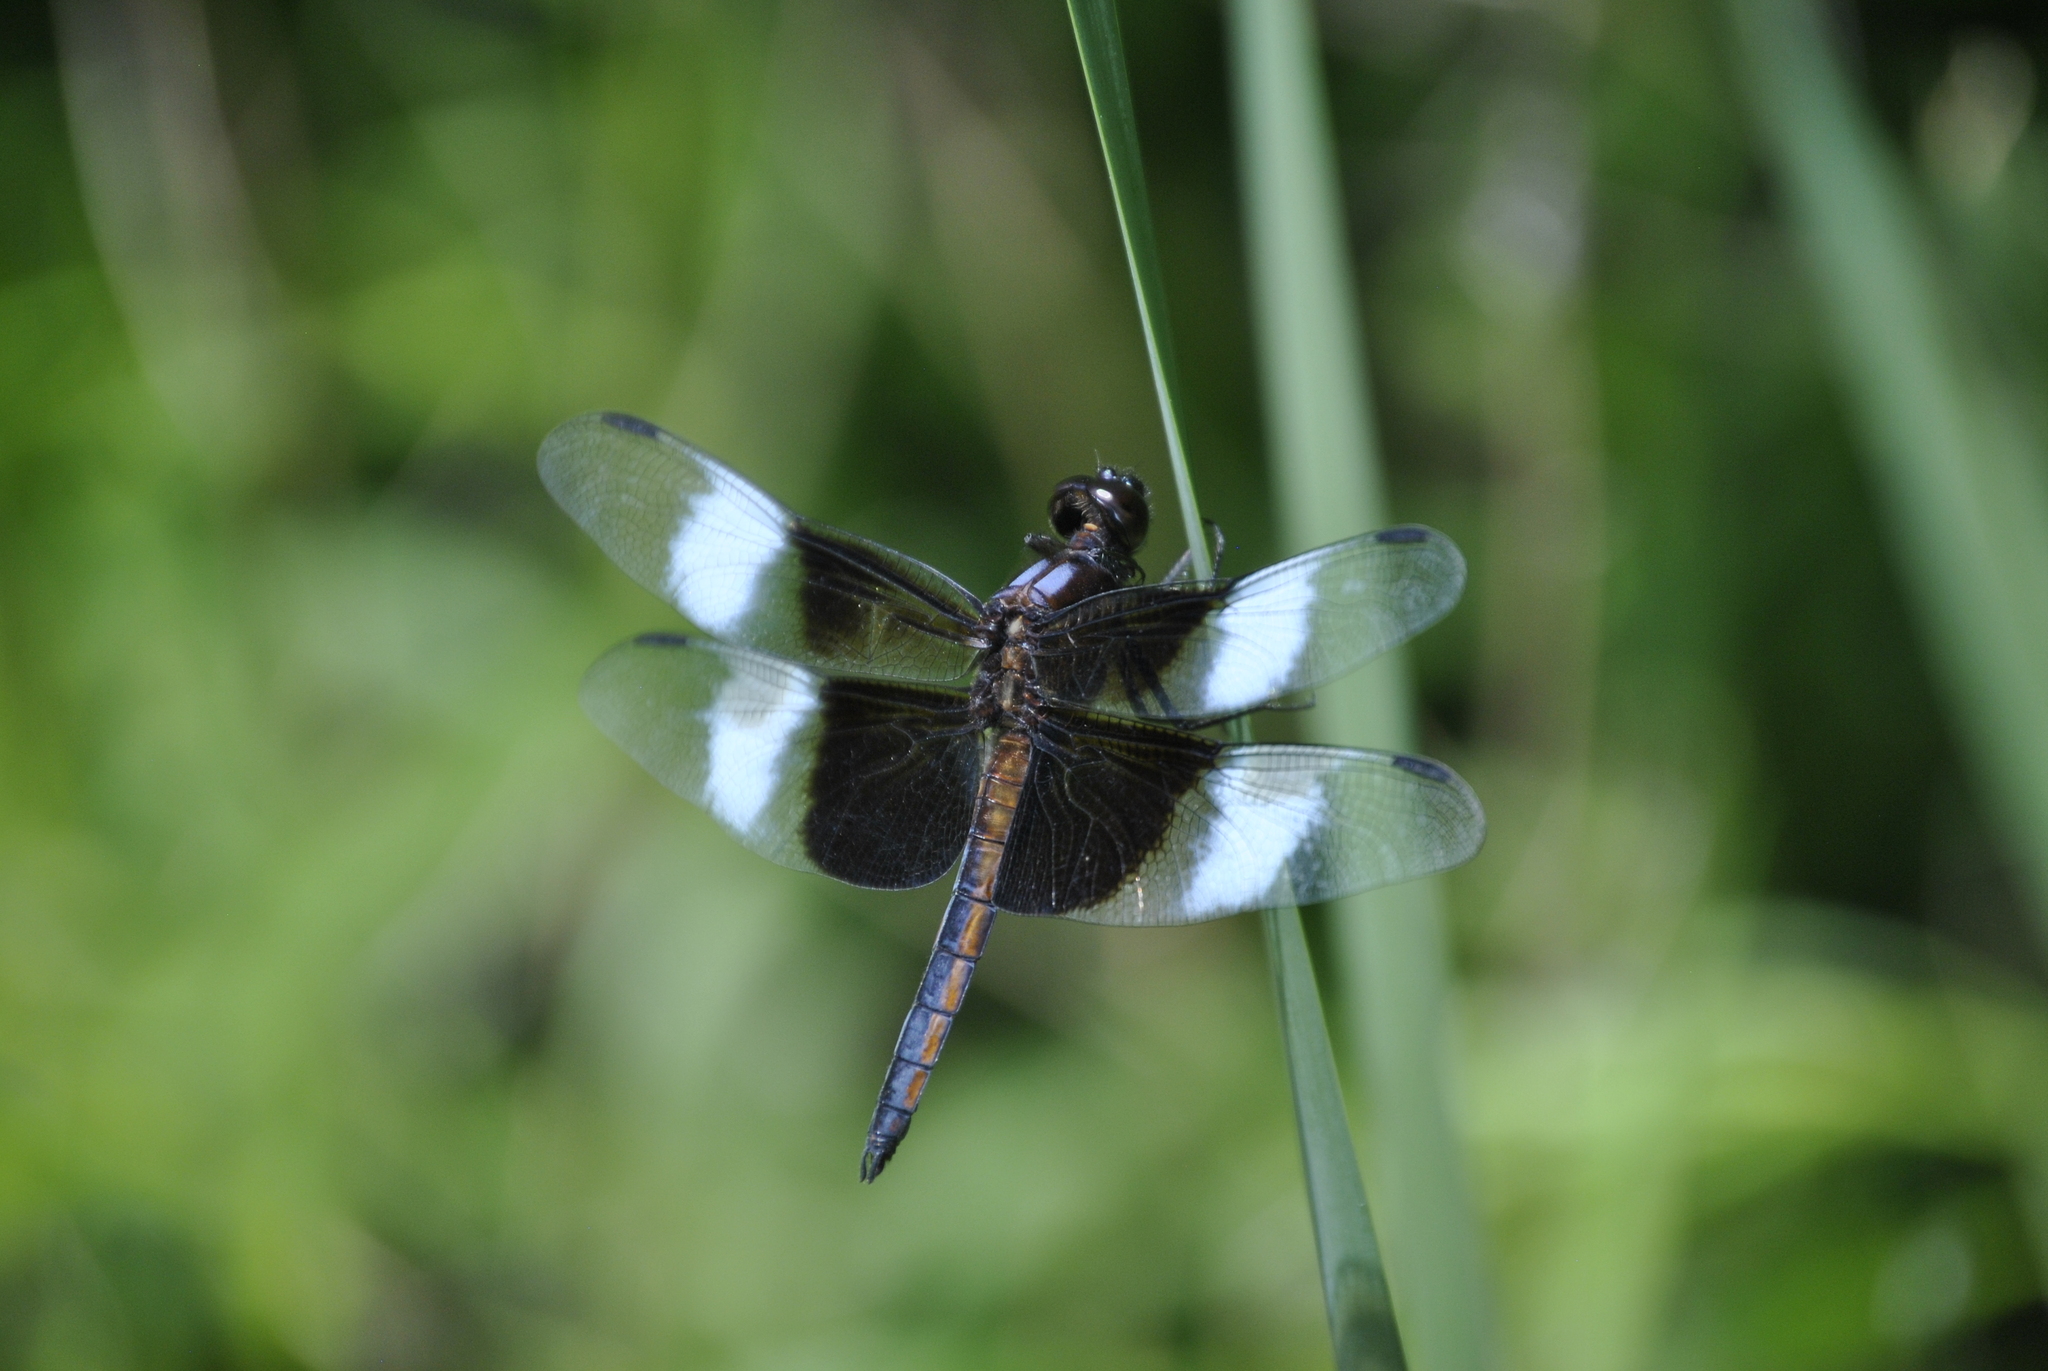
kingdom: Animalia
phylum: Arthropoda
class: Insecta
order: Odonata
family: Libellulidae
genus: Libellula
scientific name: Libellula luctuosa
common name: Widow skimmer
